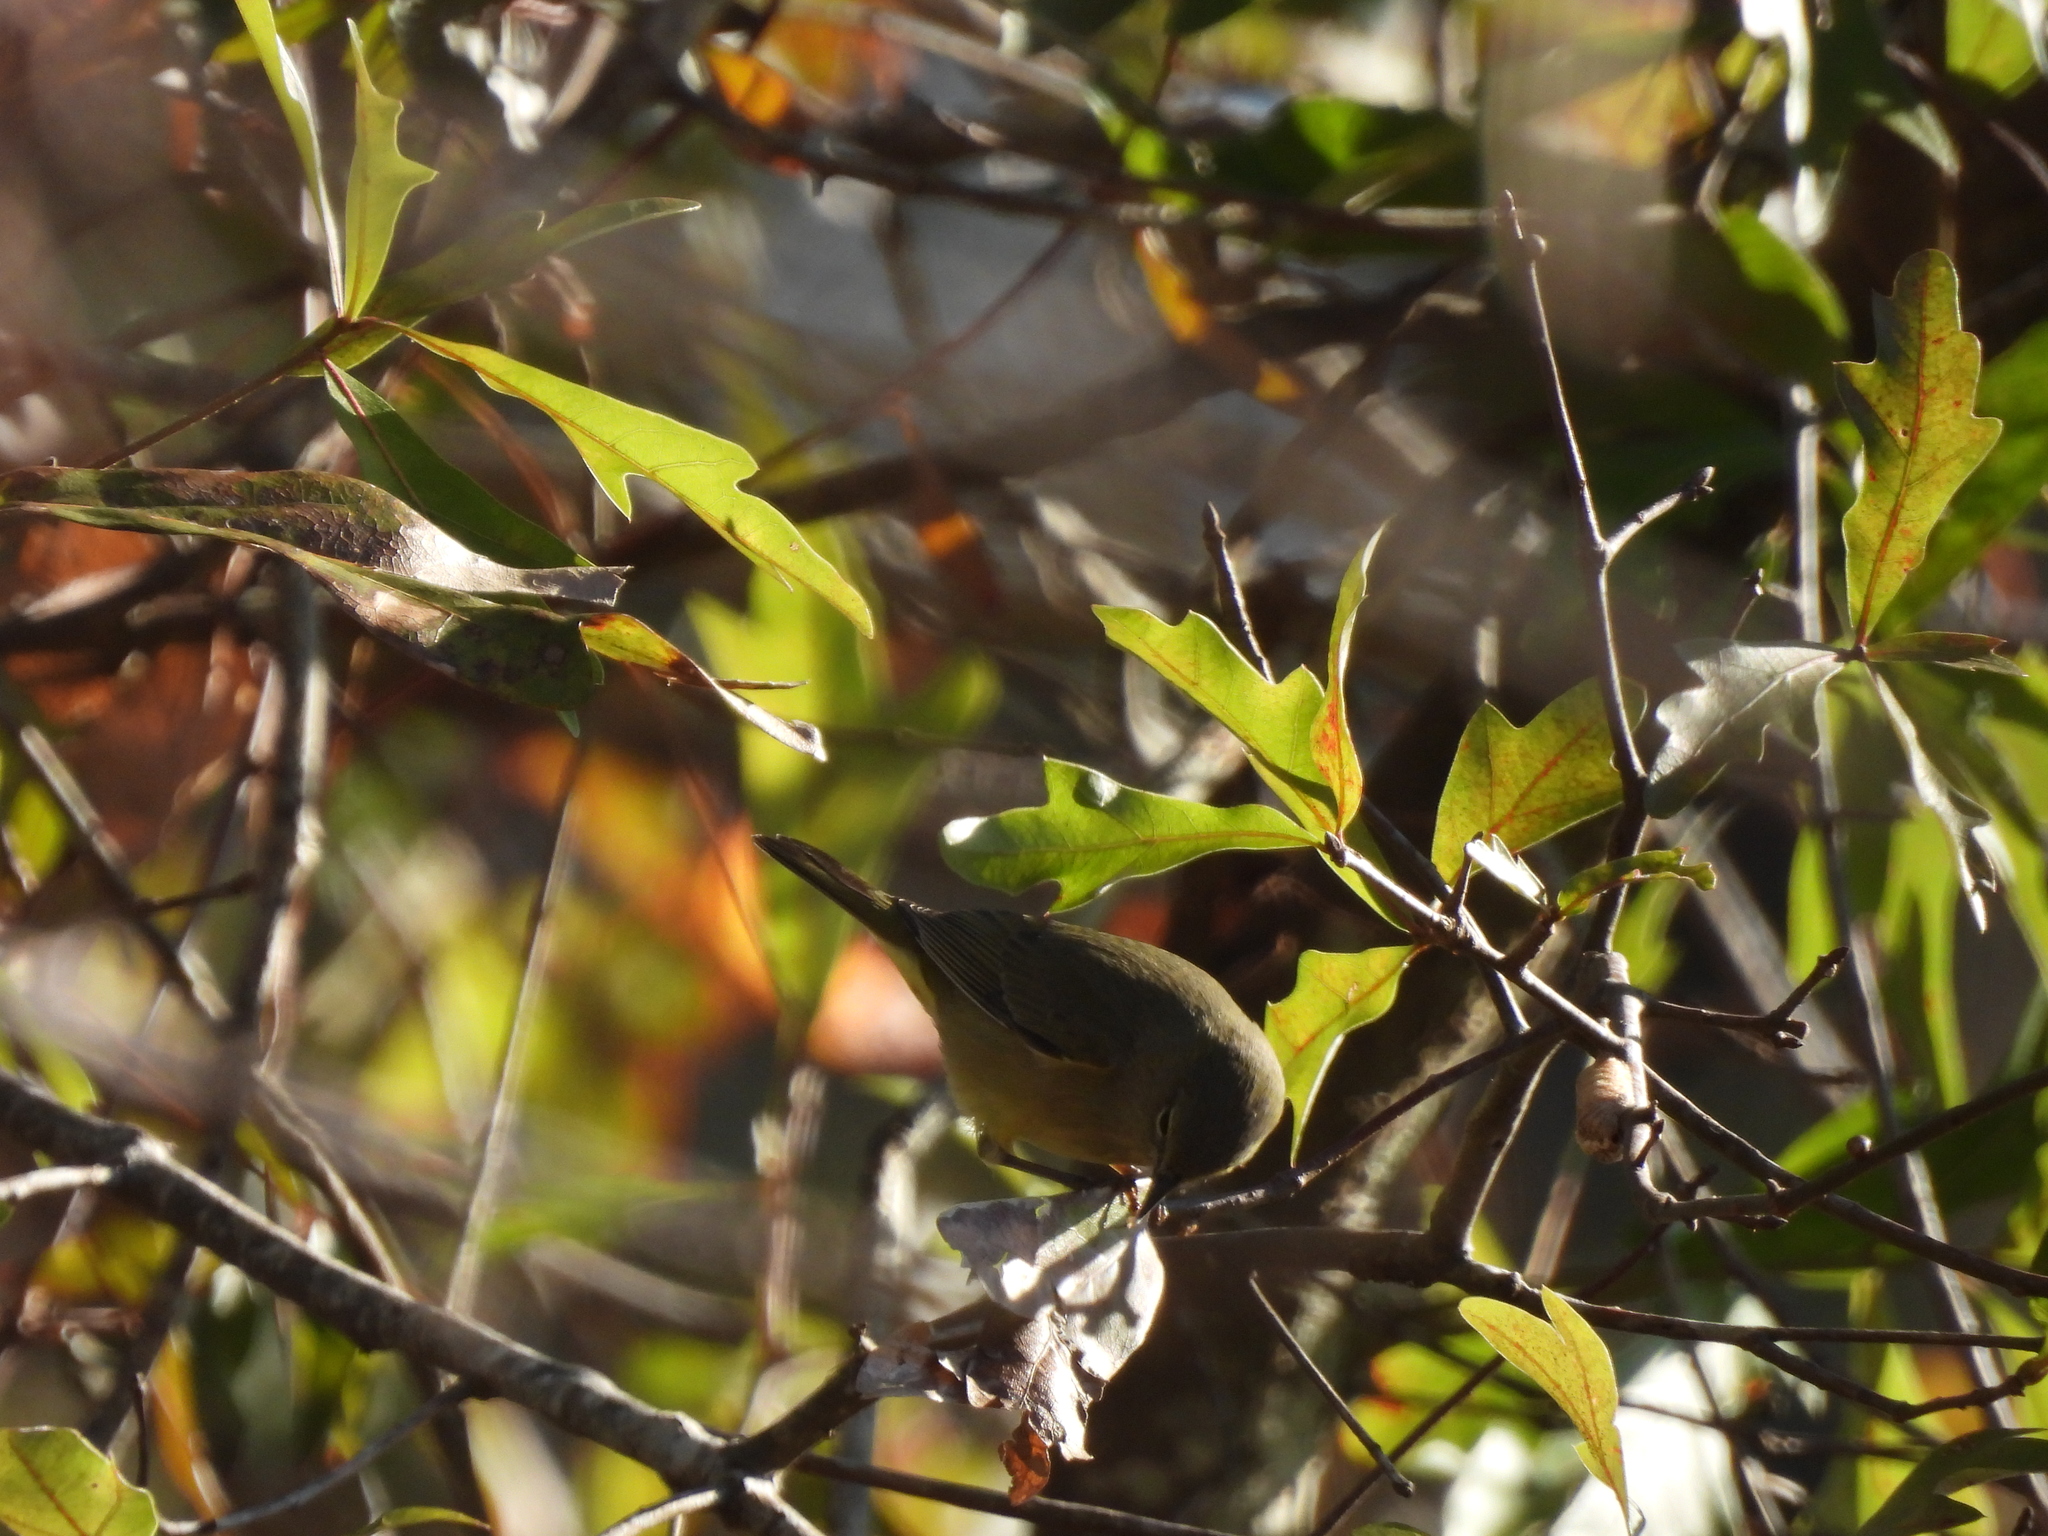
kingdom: Animalia
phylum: Chordata
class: Aves
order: Passeriformes
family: Parulidae
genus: Leiothlypis
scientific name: Leiothlypis celata
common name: Orange-crowned warbler
